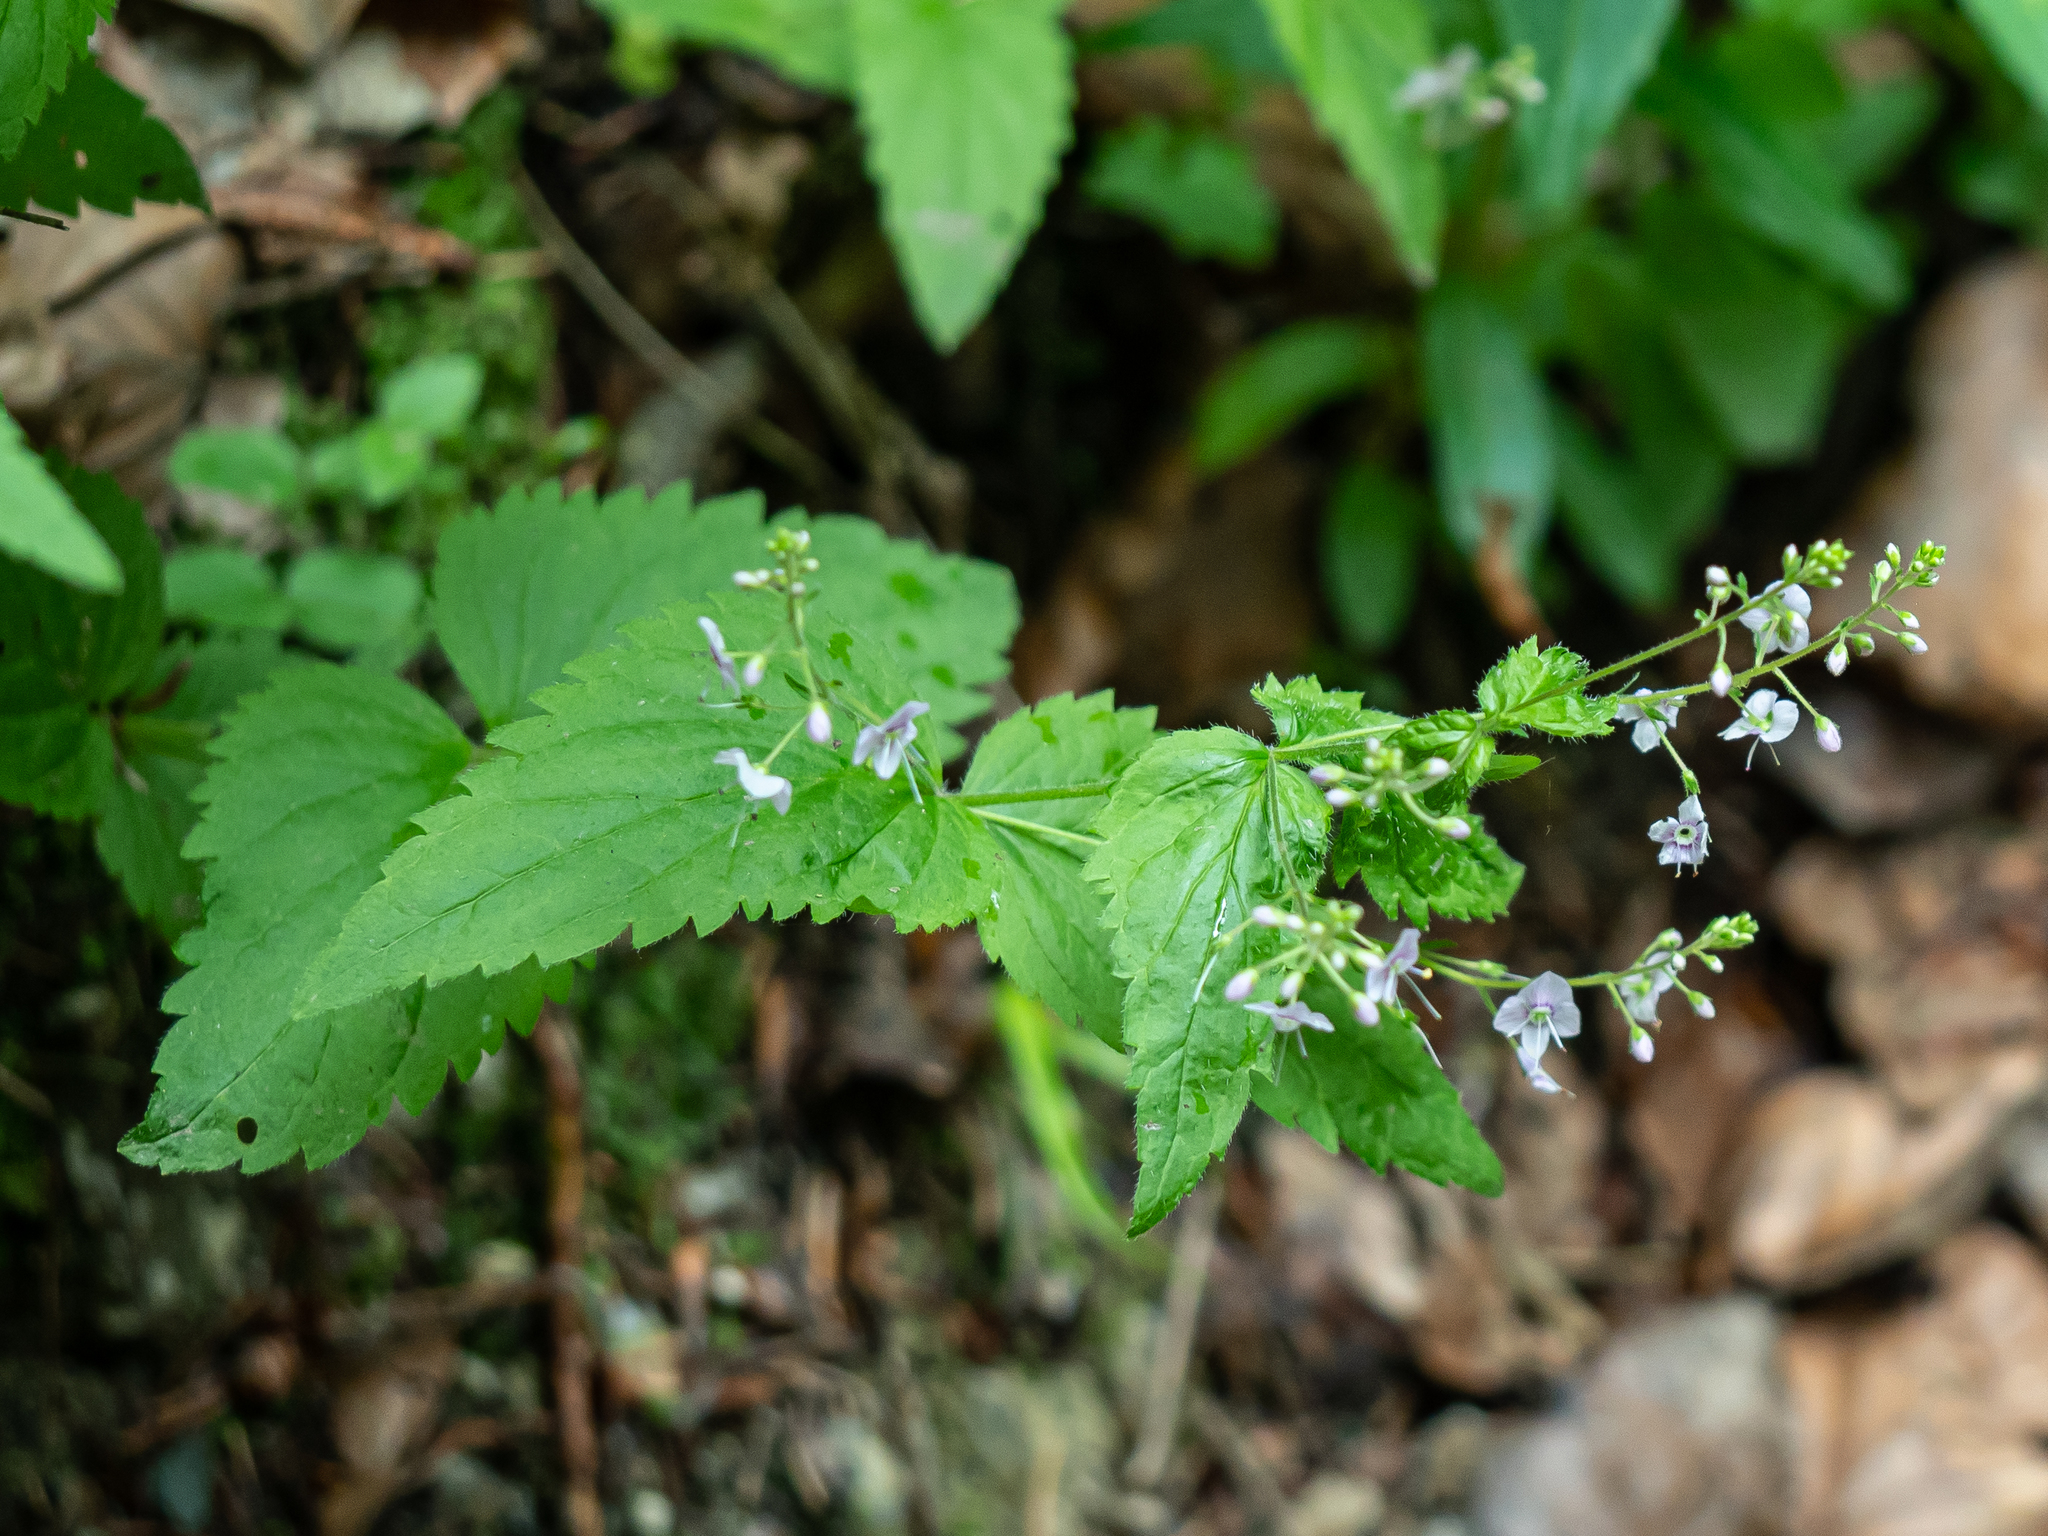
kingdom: Plantae
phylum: Tracheophyta
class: Magnoliopsida
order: Lamiales
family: Plantaginaceae
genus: Veronica
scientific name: Veronica urticifolia
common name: Nettle-leaf speedwell
